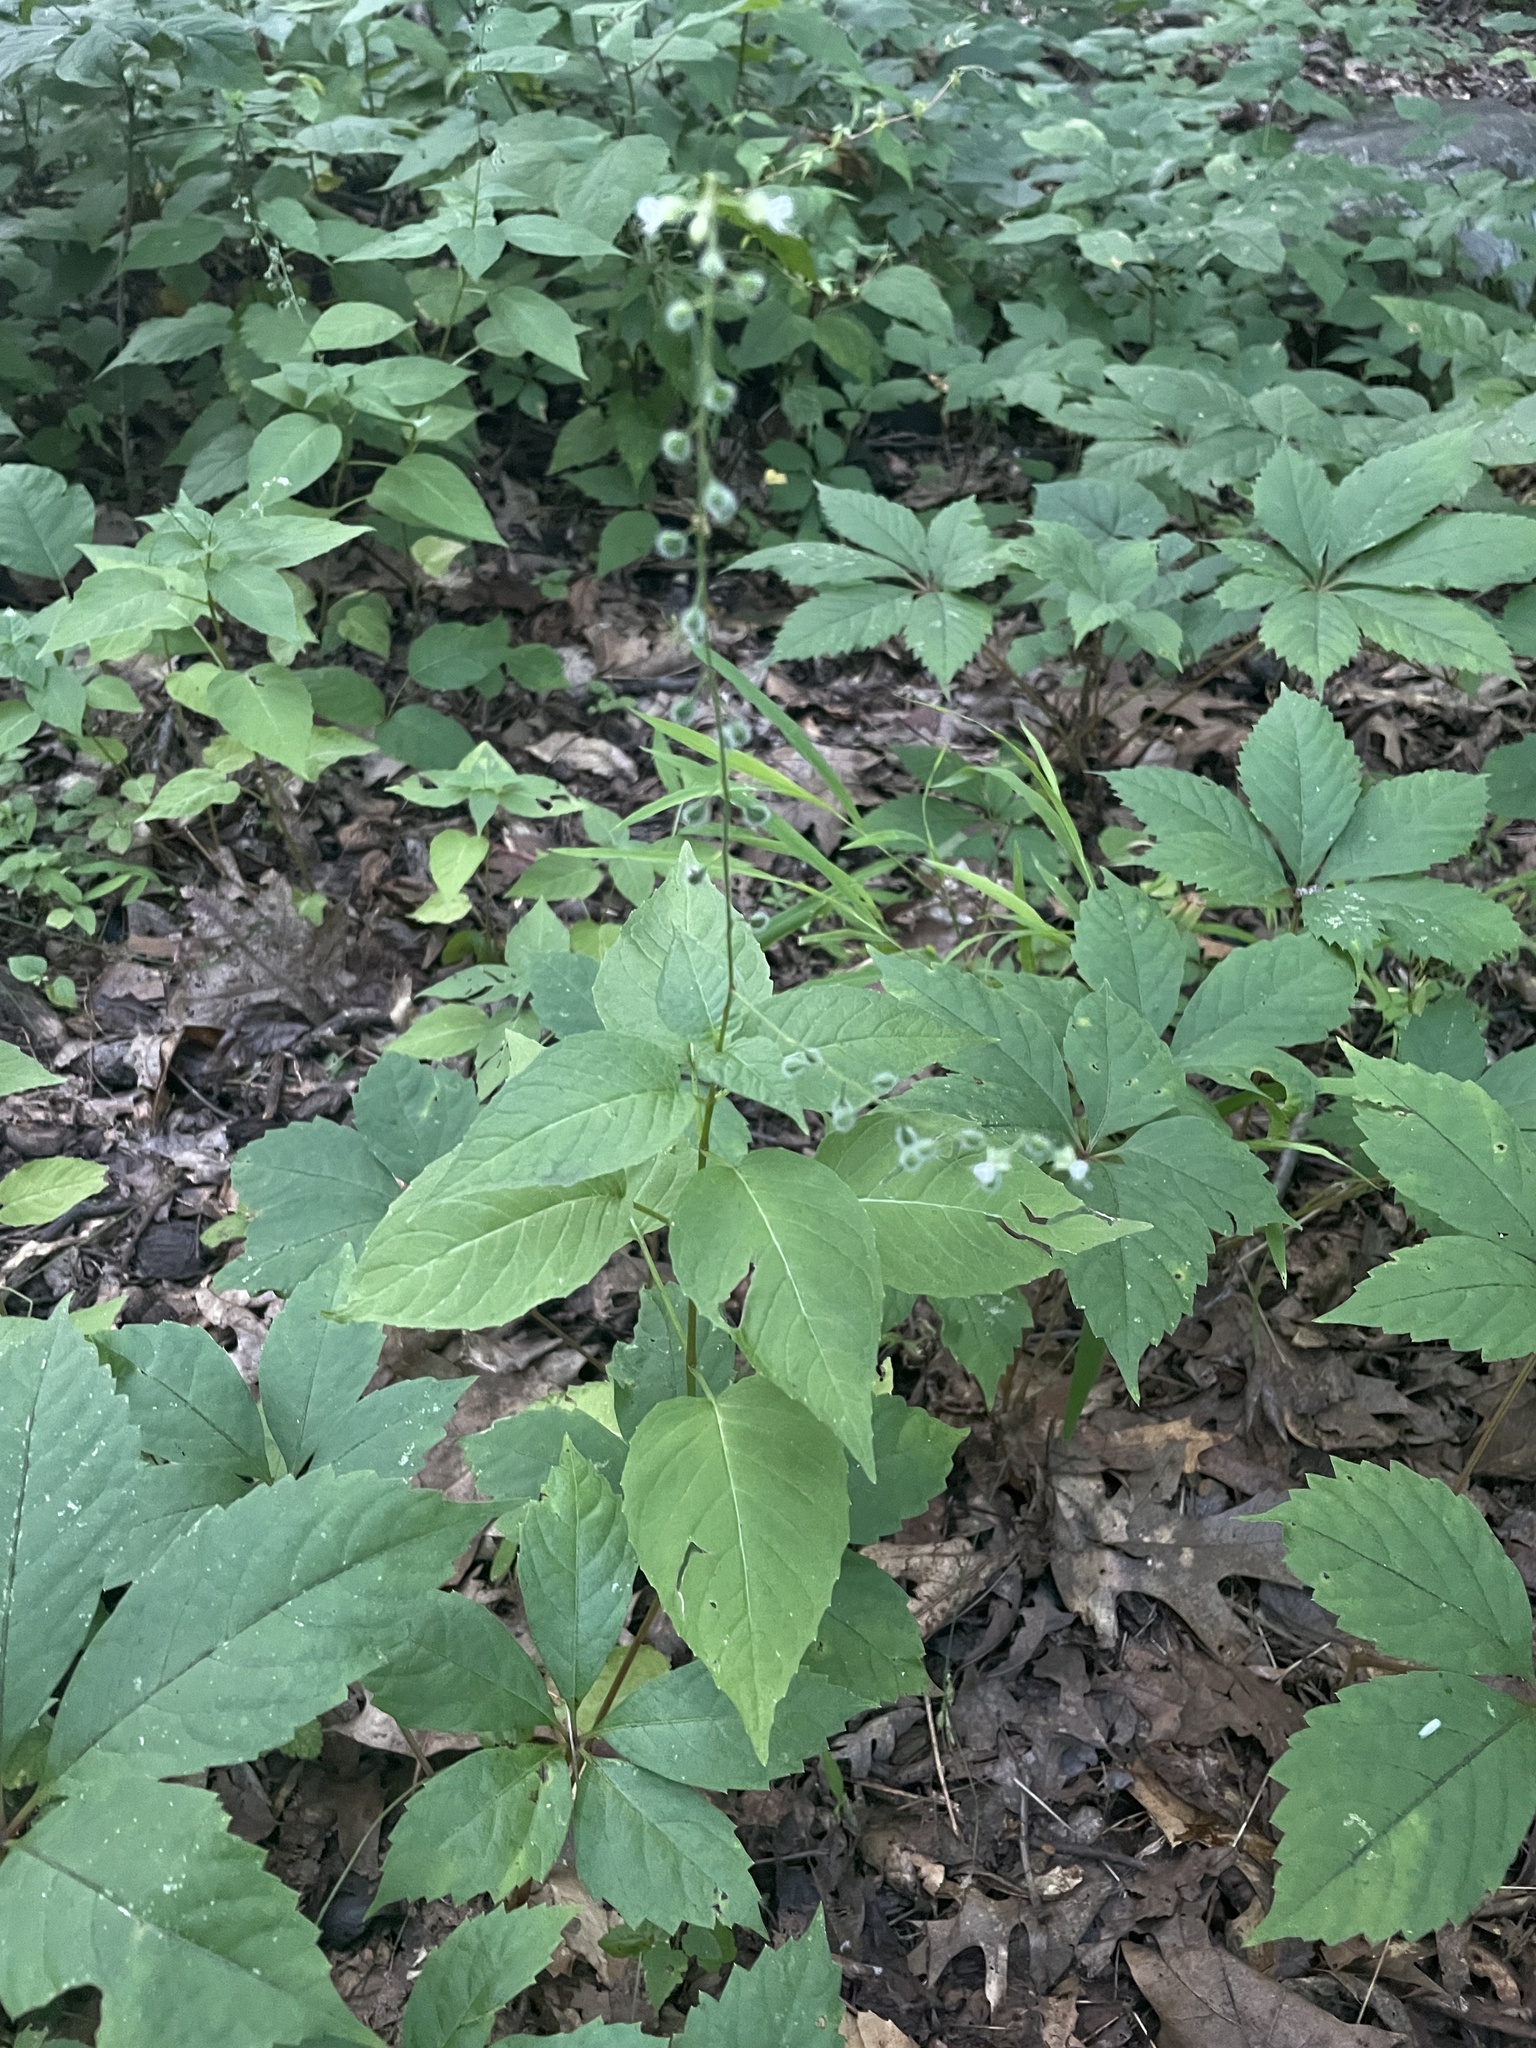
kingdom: Plantae
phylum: Tracheophyta
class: Magnoliopsida
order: Myrtales
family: Onagraceae
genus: Circaea
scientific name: Circaea canadensis
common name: Broad-leaved enchanter's nightshade
